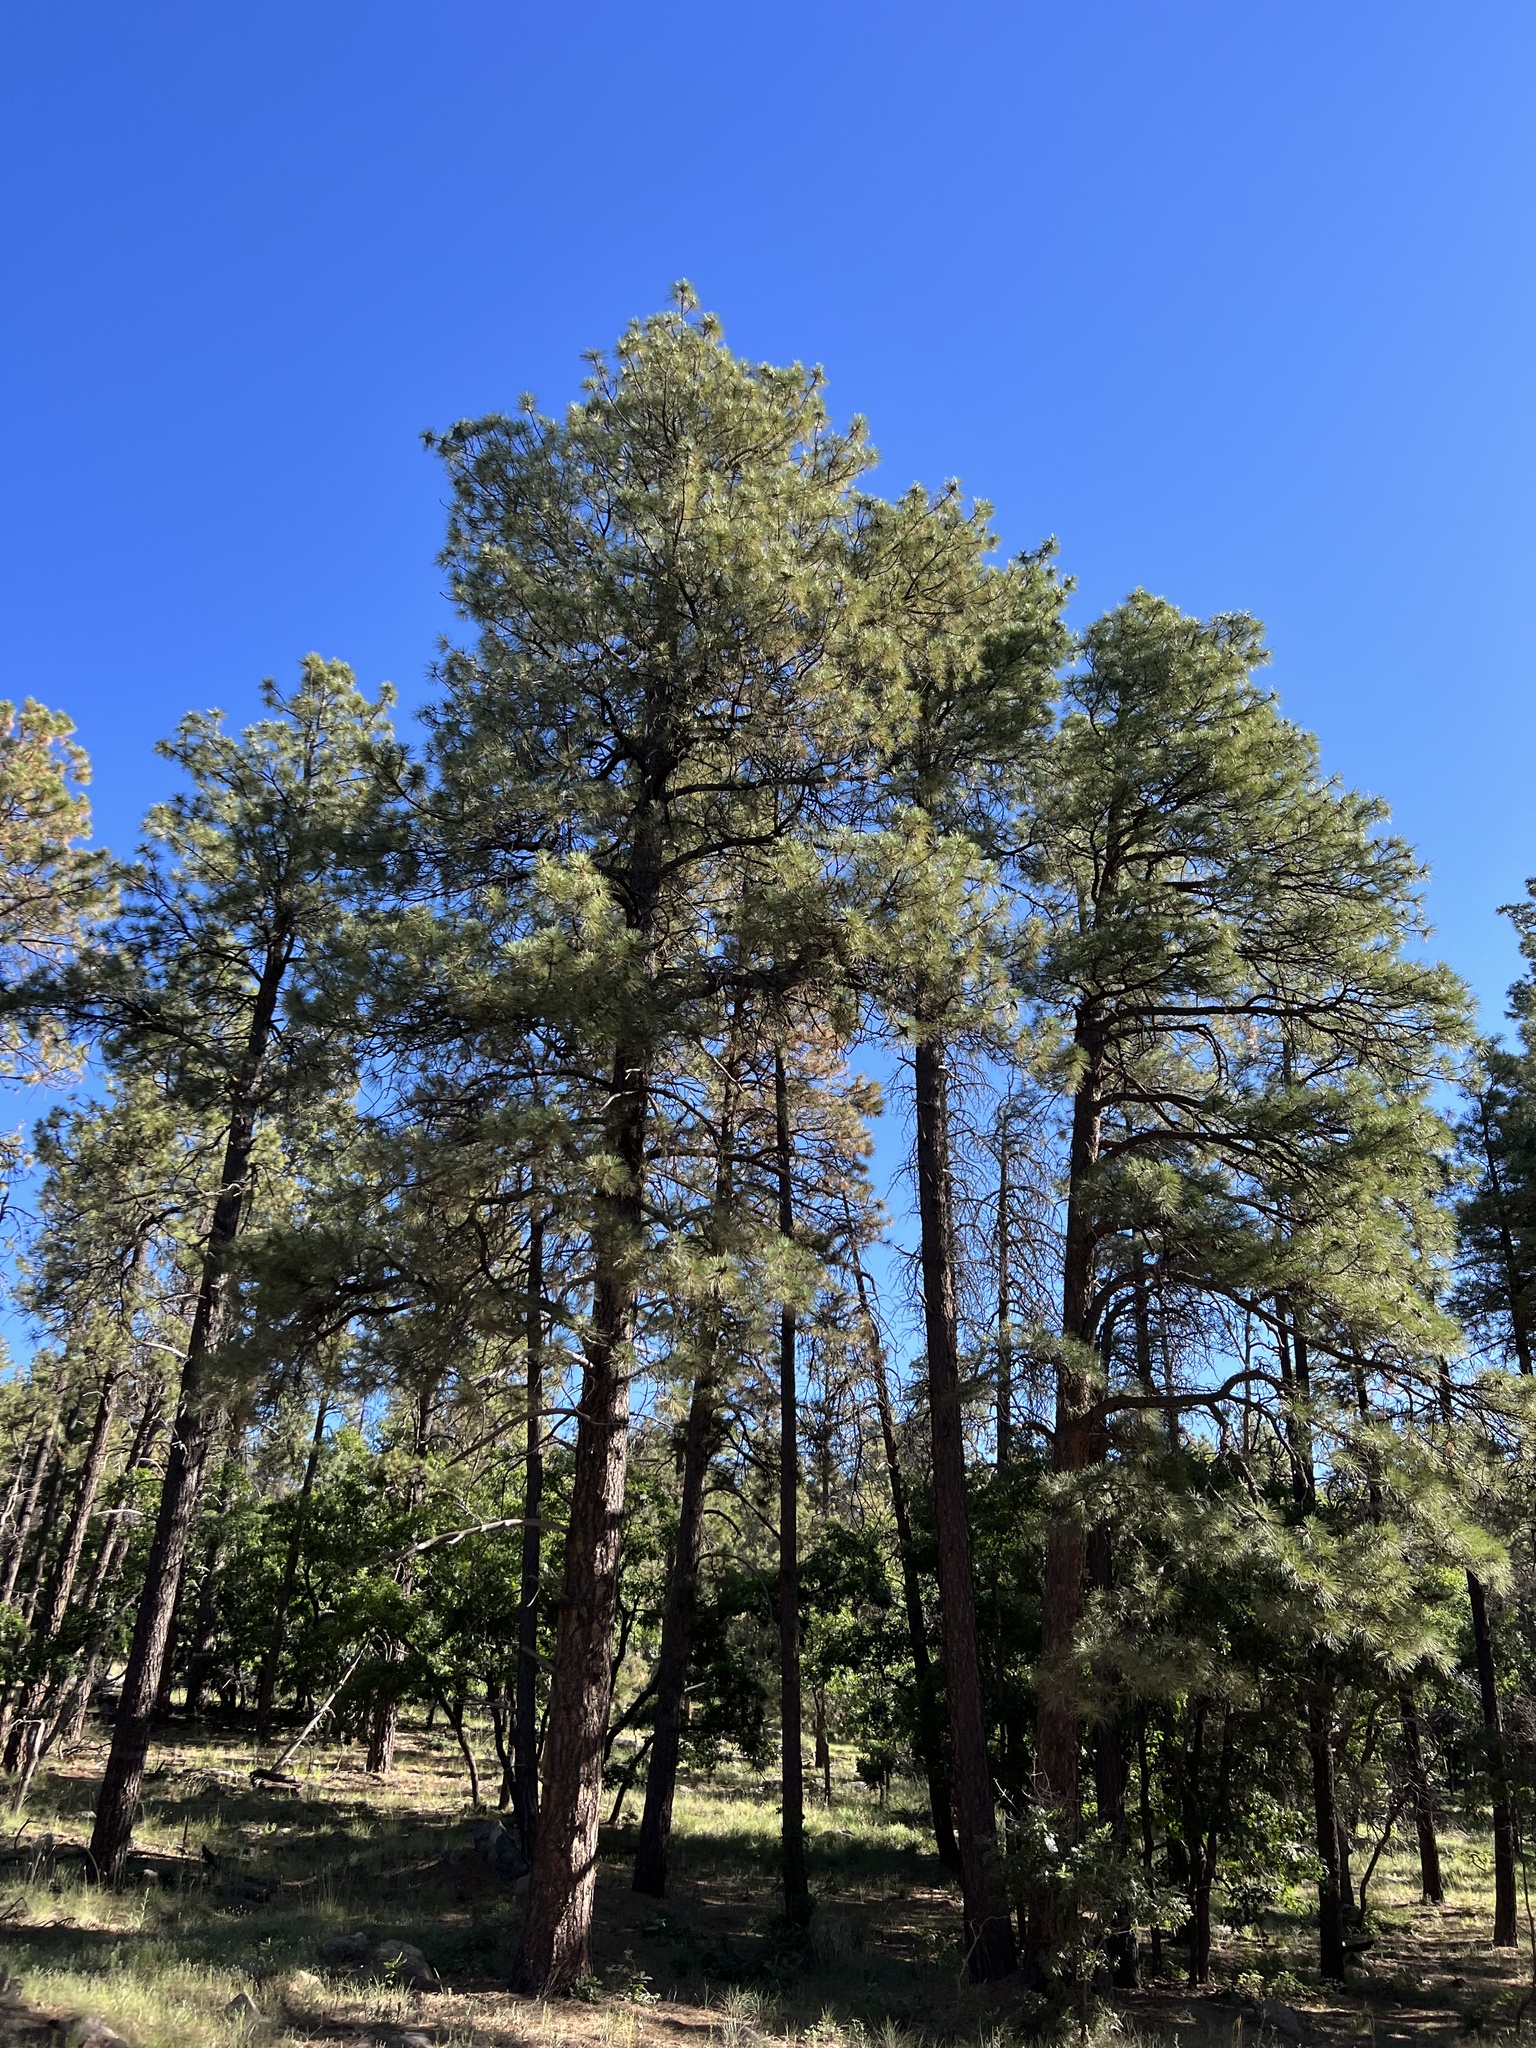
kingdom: Plantae
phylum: Tracheophyta
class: Pinopsida
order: Pinales
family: Pinaceae
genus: Pinus
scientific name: Pinus ponderosa
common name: Western yellow-pine
